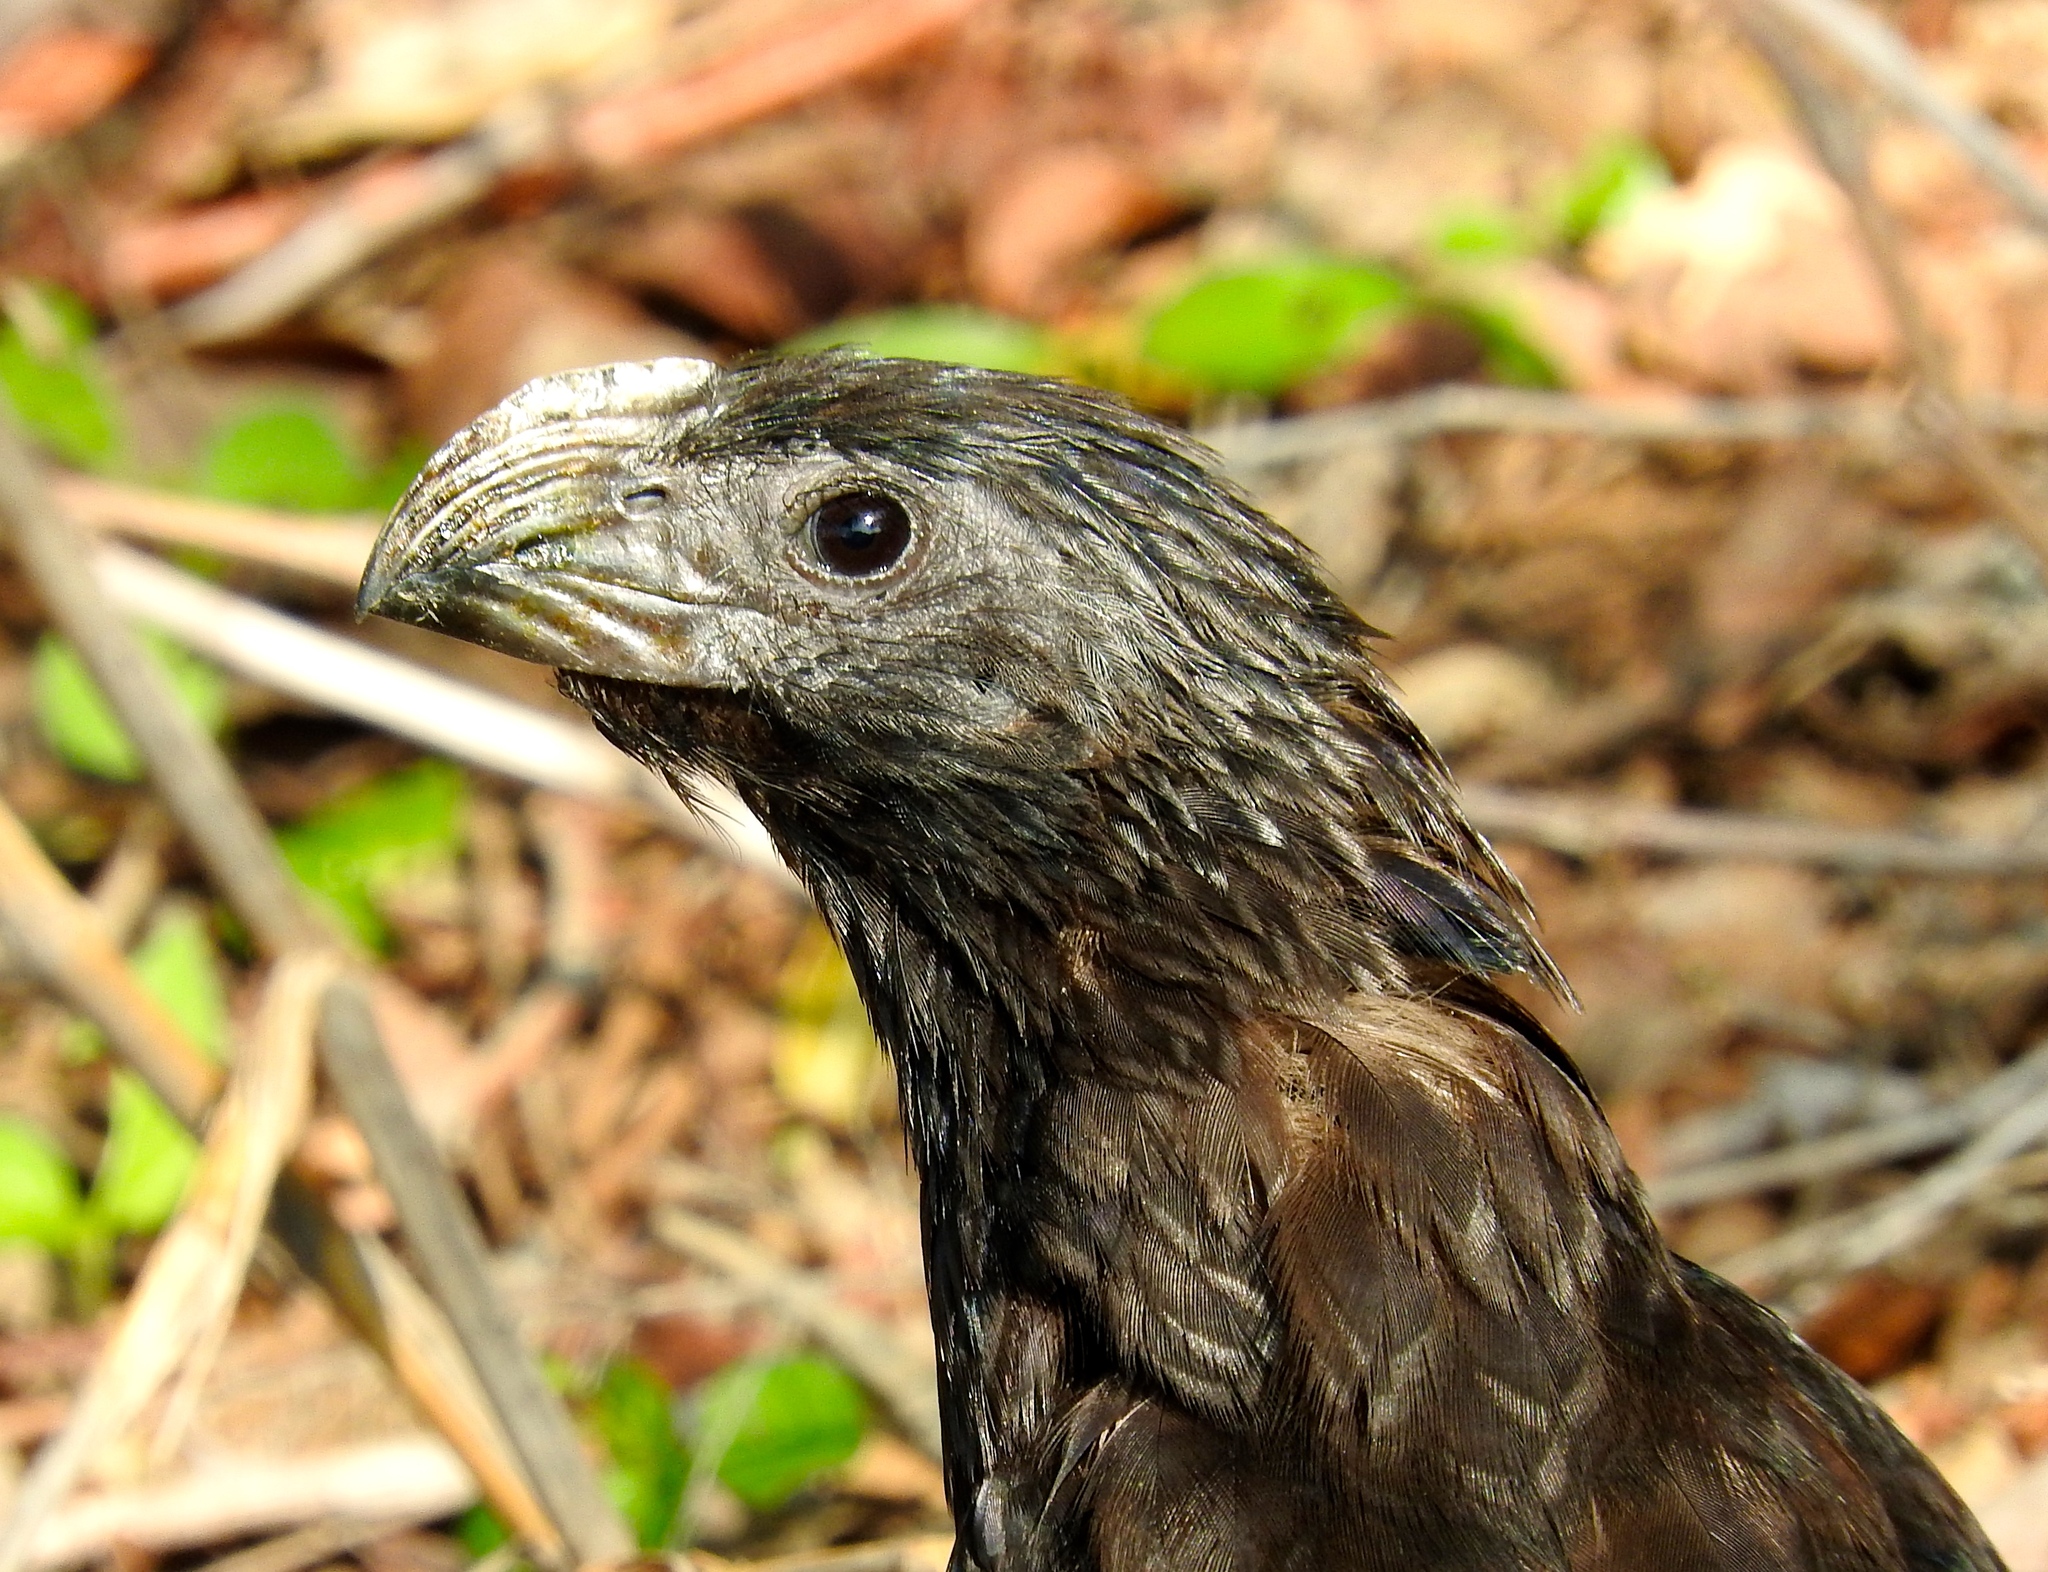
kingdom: Animalia
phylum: Chordata
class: Aves
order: Cuculiformes
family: Cuculidae
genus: Crotophaga
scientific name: Crotophaga sulcirostris
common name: Groove-billed ani
